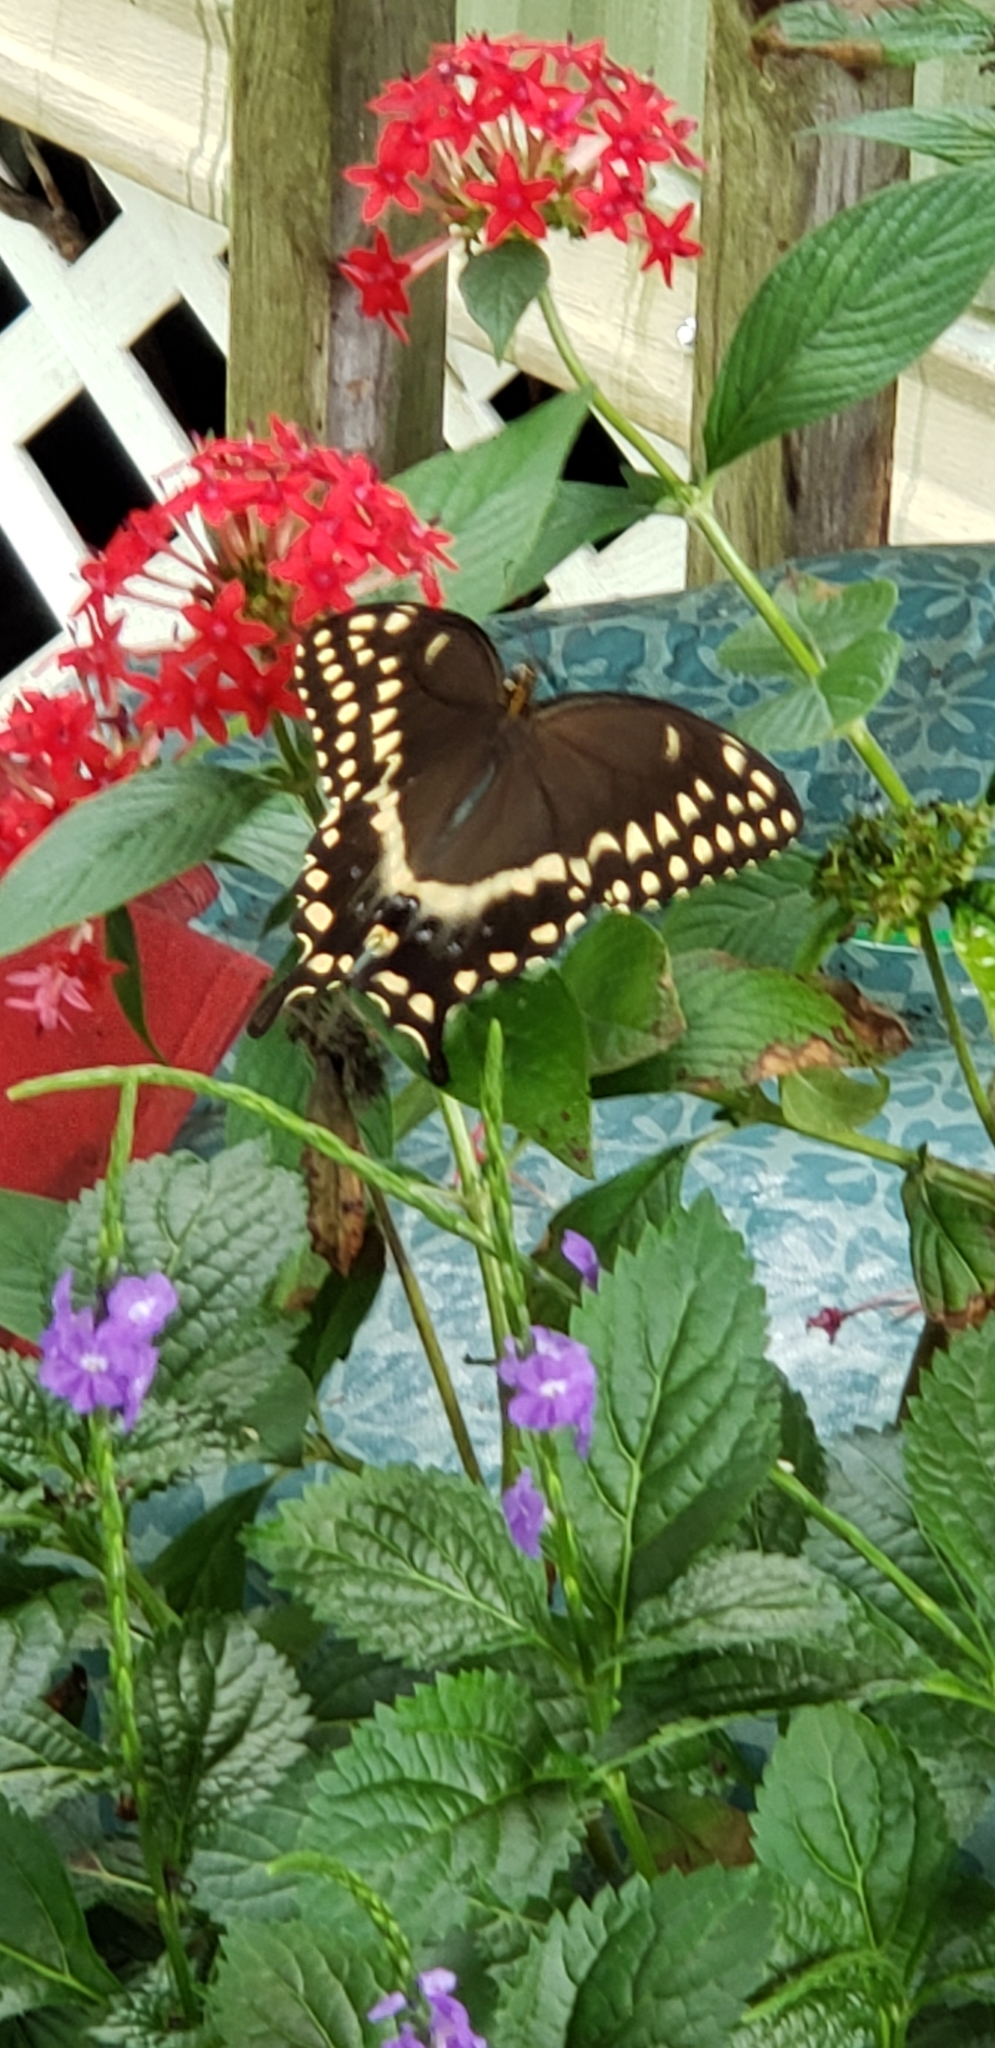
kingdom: Animalia
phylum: Arthropoda
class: Insecta
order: Lepidoptera
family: Papilionidae
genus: Papilio
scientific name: Papilio palamedes
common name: Palamedes swallowtail
